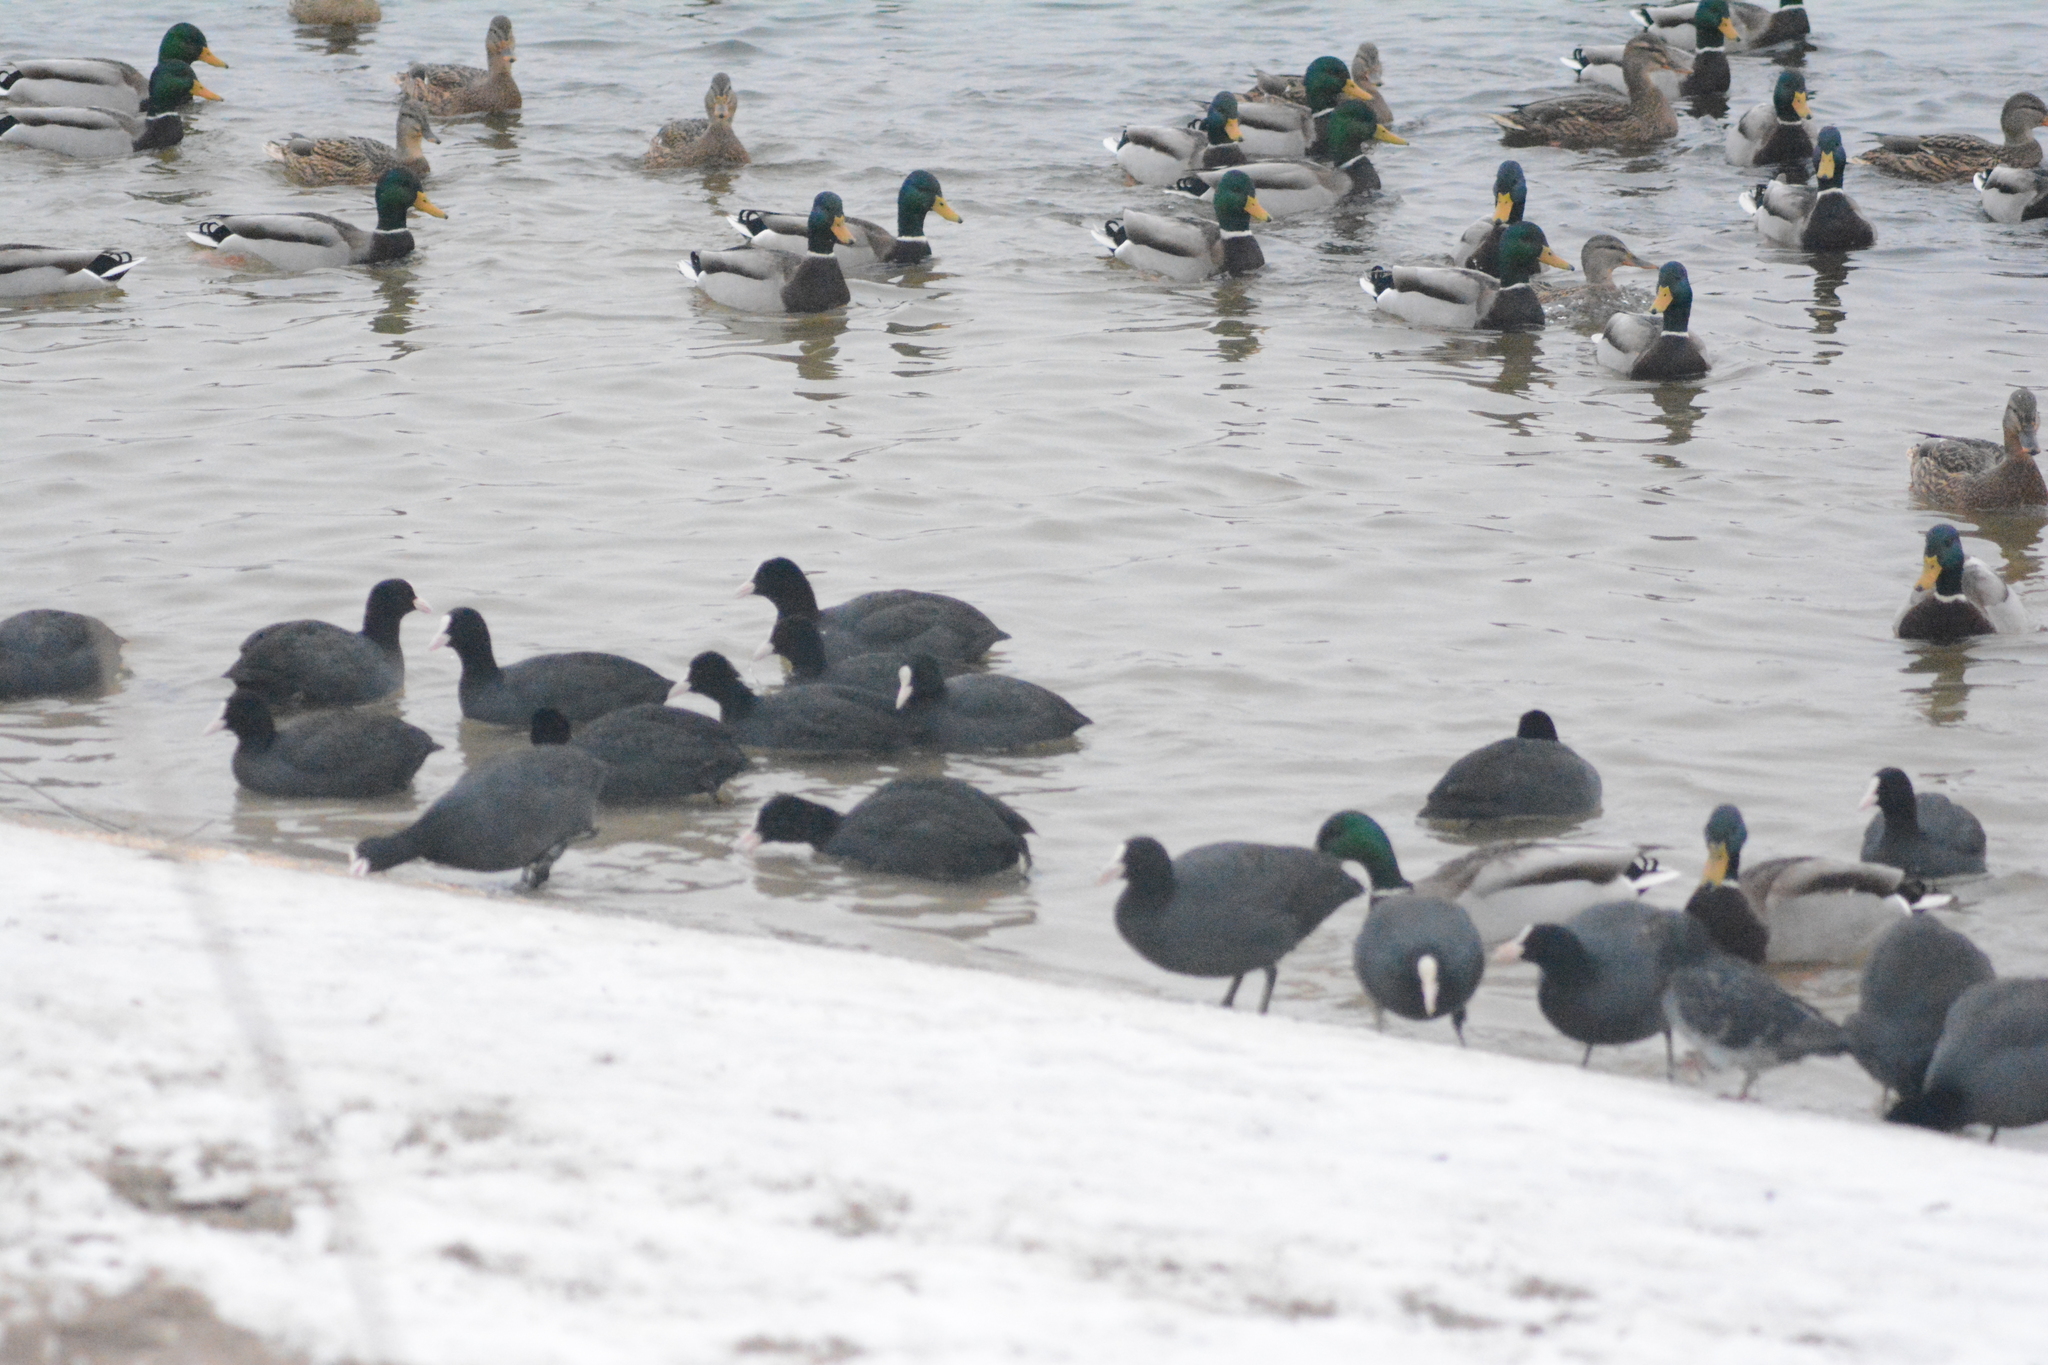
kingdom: Animalia
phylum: Chordata
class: Aves
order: Gruiformes
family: Rallidae
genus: Fulica
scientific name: Fulica atra
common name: Eurasian coot
